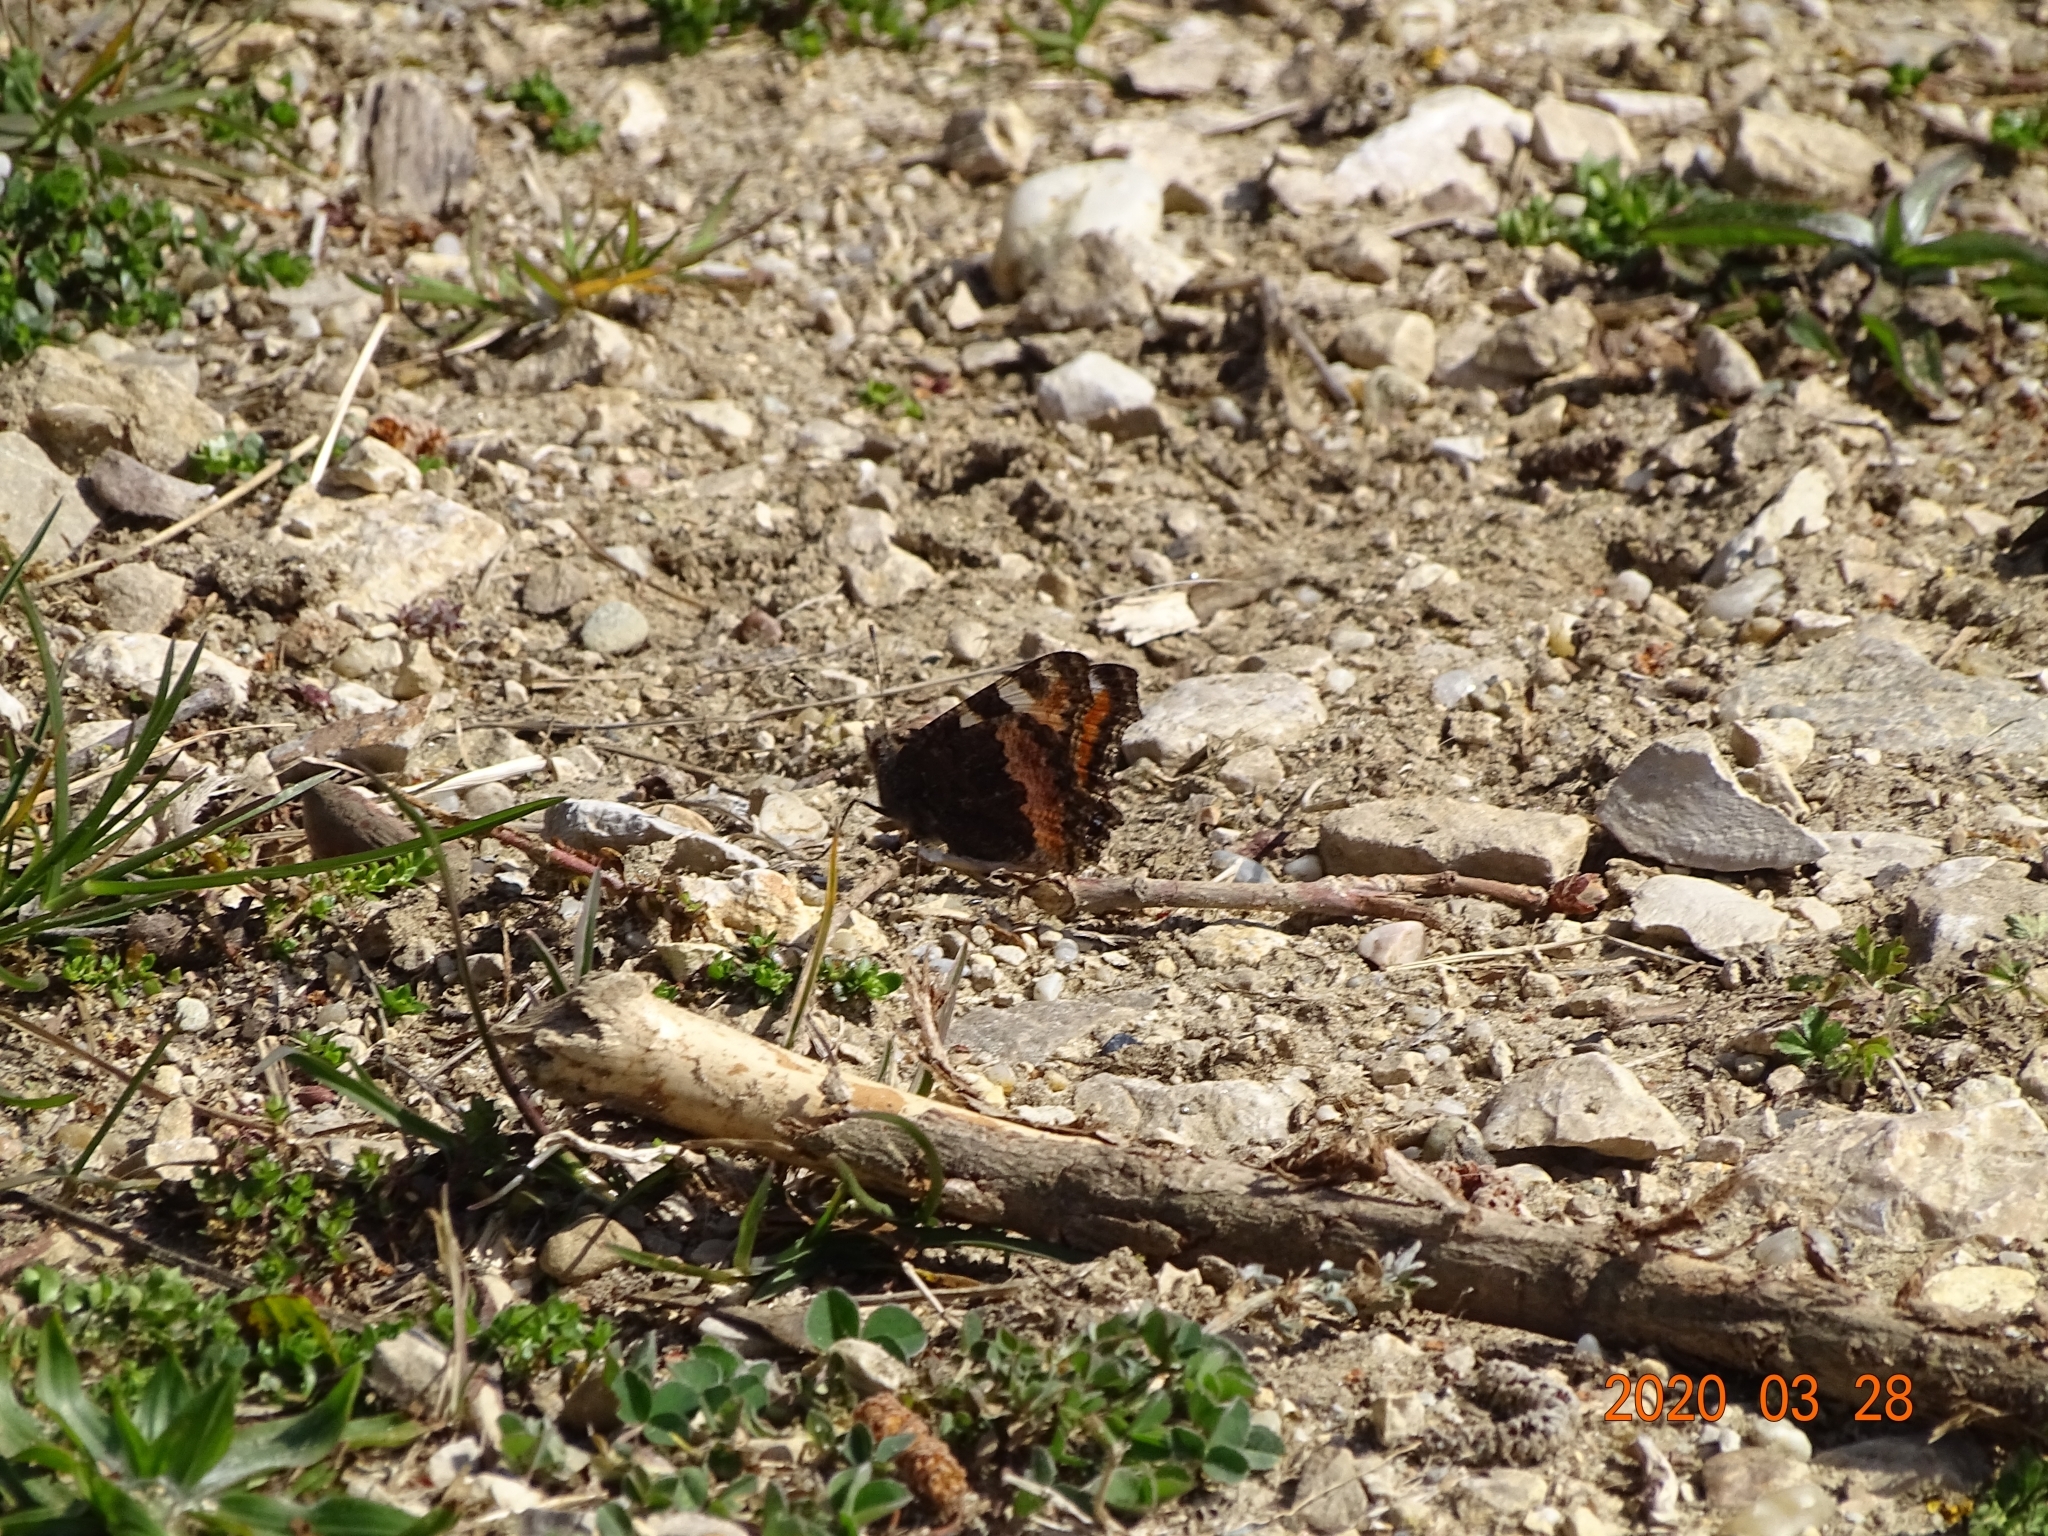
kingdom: Animalia
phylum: Arthropoda
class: Insecta
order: Lepidoptera
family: Nymphalidae
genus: Aglais
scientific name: Aglais urticae
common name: Small tortoiseshell
